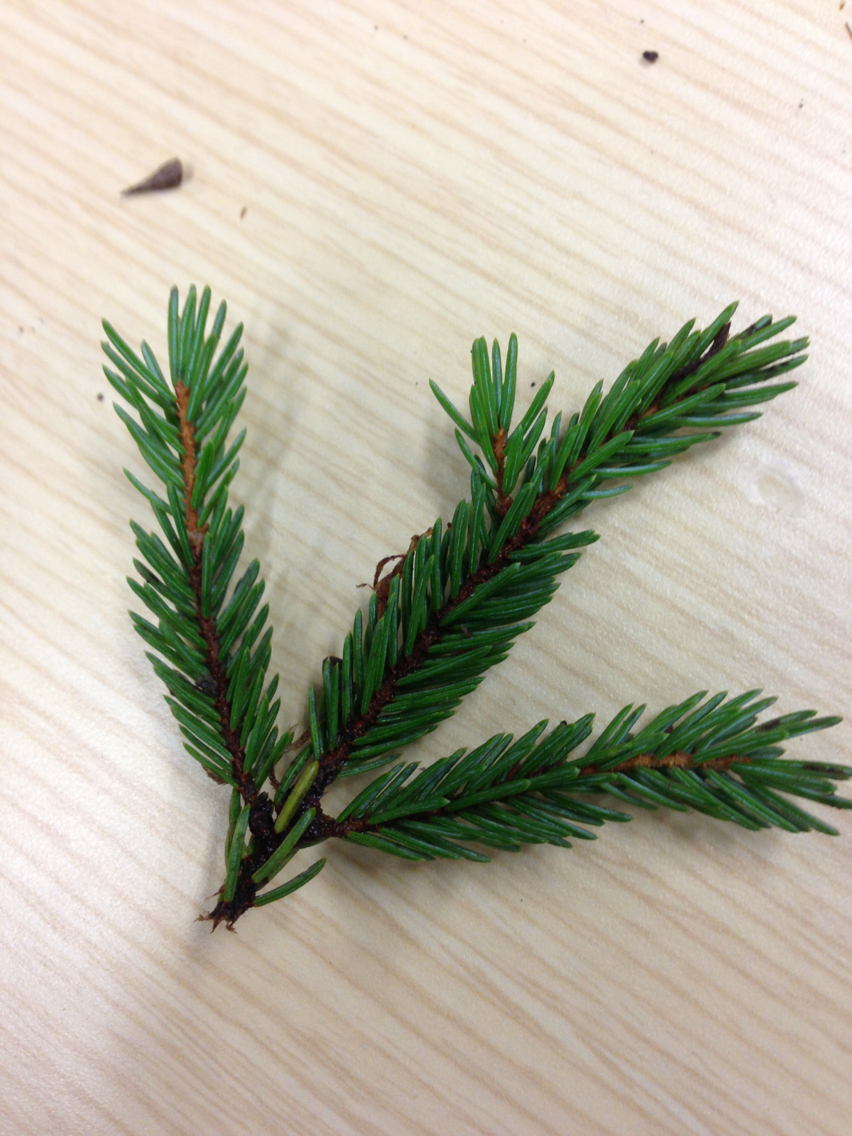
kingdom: Plantae
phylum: Tracheophyta
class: Pinopsida
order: Pinales
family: Pinaceae
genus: Picea
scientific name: Picea
